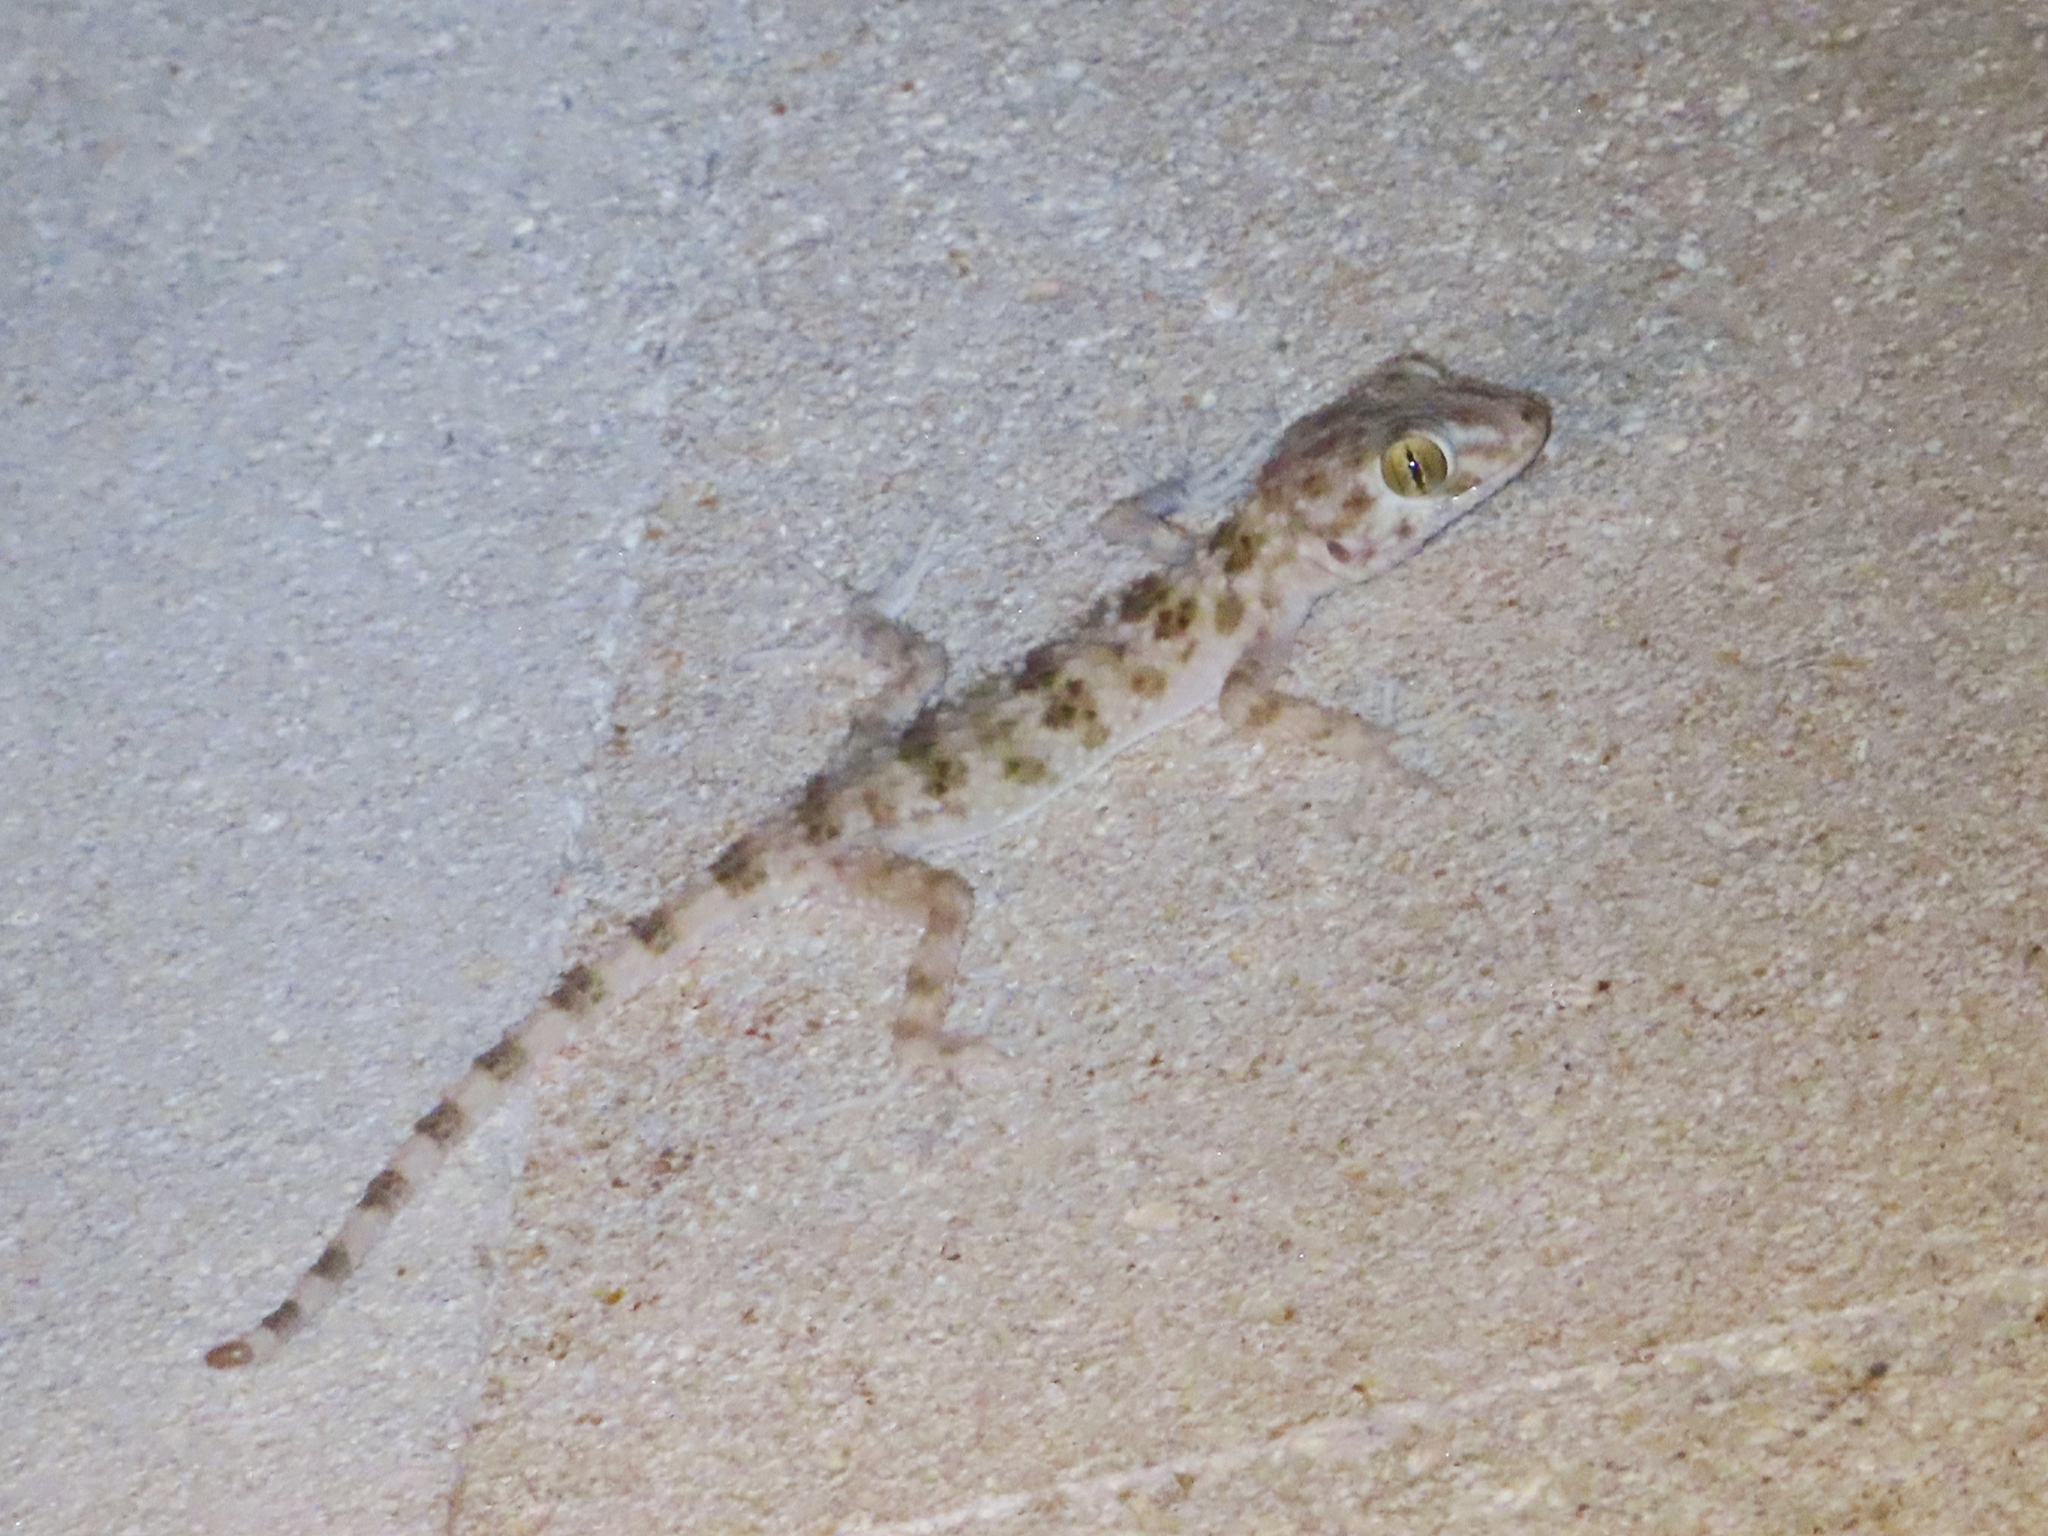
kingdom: Animalia
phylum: Chordata
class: Squamata
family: Gekkonidae
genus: Tenuidactylus
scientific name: Tenuidactylus caspius
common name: Caspian bent-toed gecko
